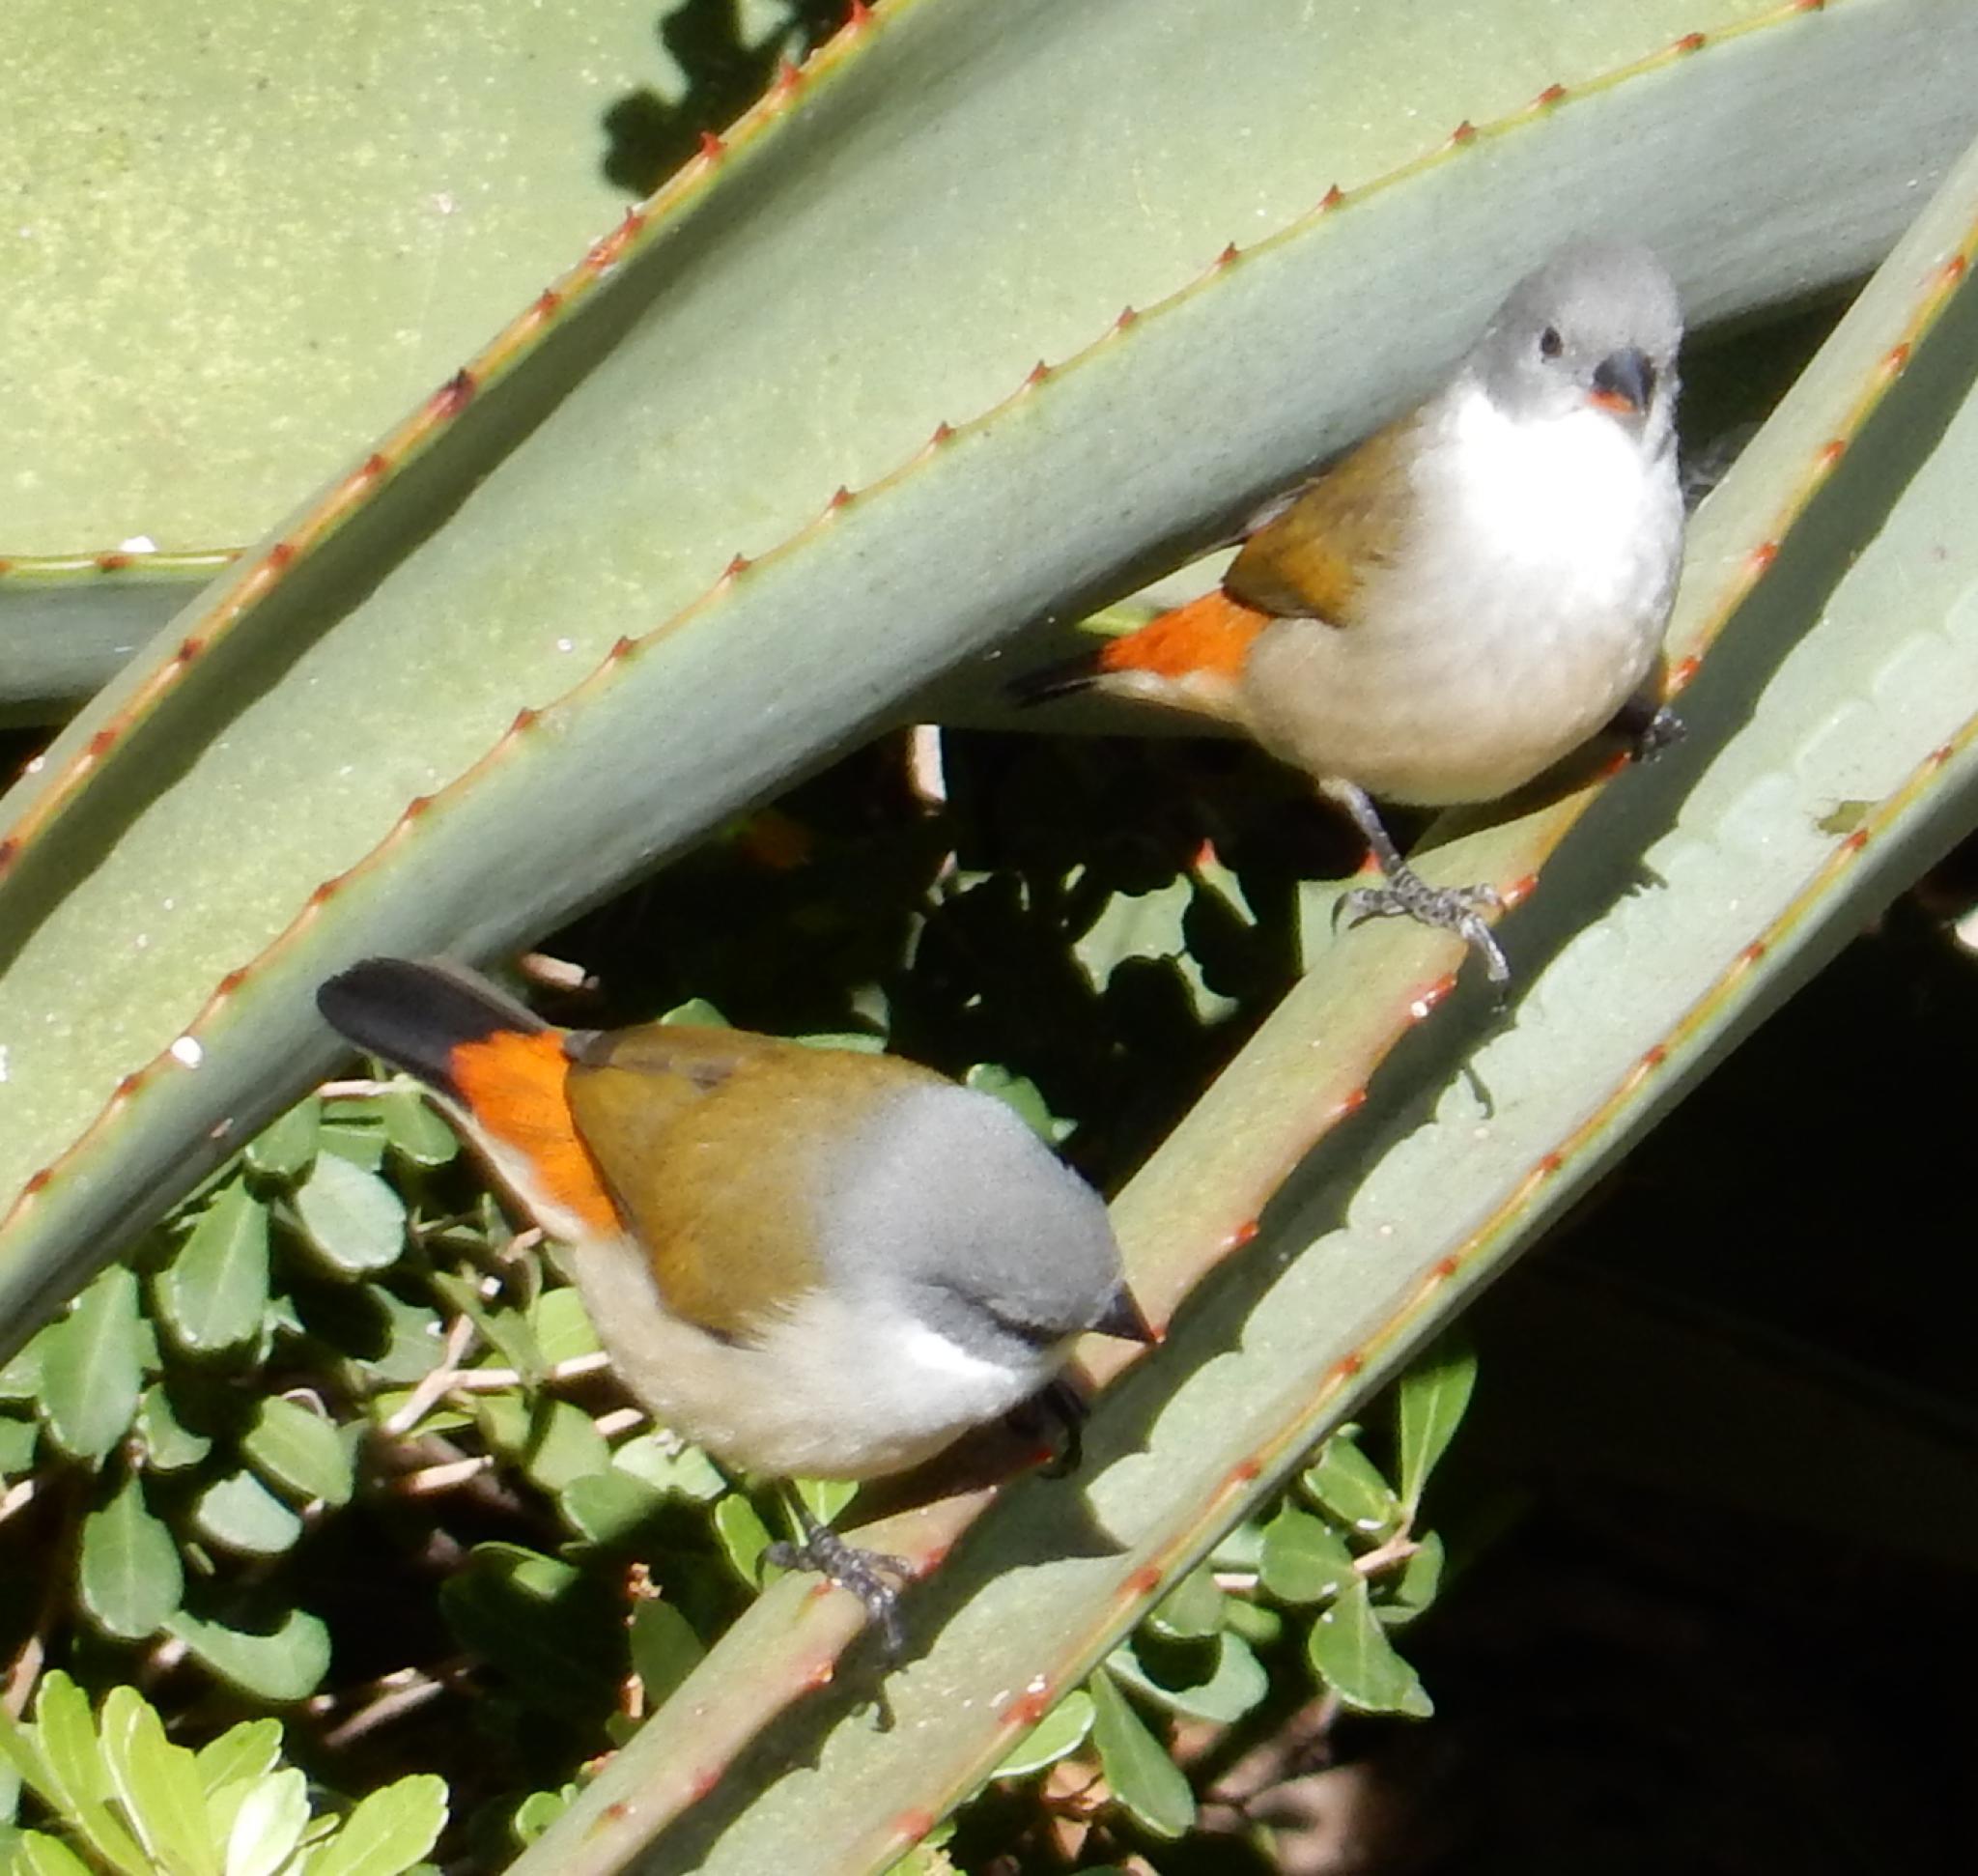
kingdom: Animalia
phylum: Chordata
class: Aves
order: Passeriformes
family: Estrildidae
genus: Coccopygia
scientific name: Coccopygia melanotis
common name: Swee waxbill
